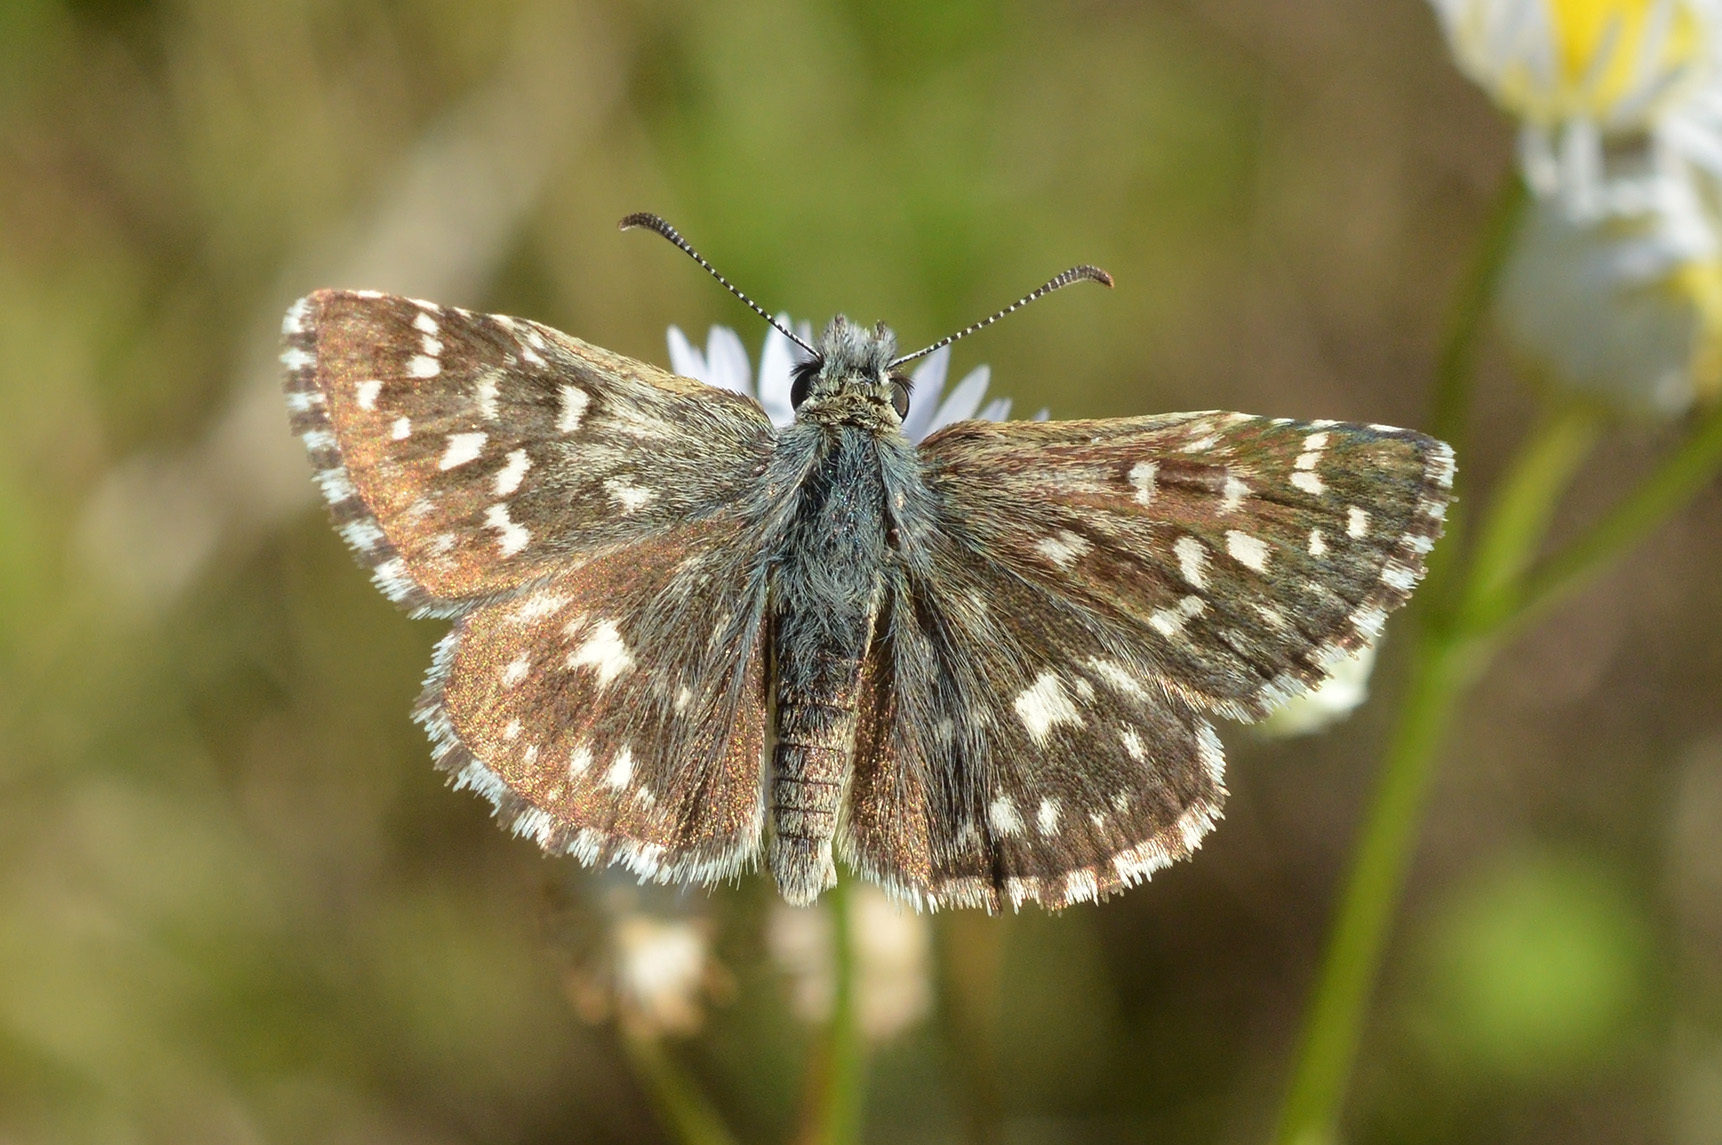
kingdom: Animalia
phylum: Arthropoda
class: Insecta
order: Lepidoptera
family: Hesperiidae
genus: Pyrgus
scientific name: Pyrgus malvae
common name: Grizzled skipper
